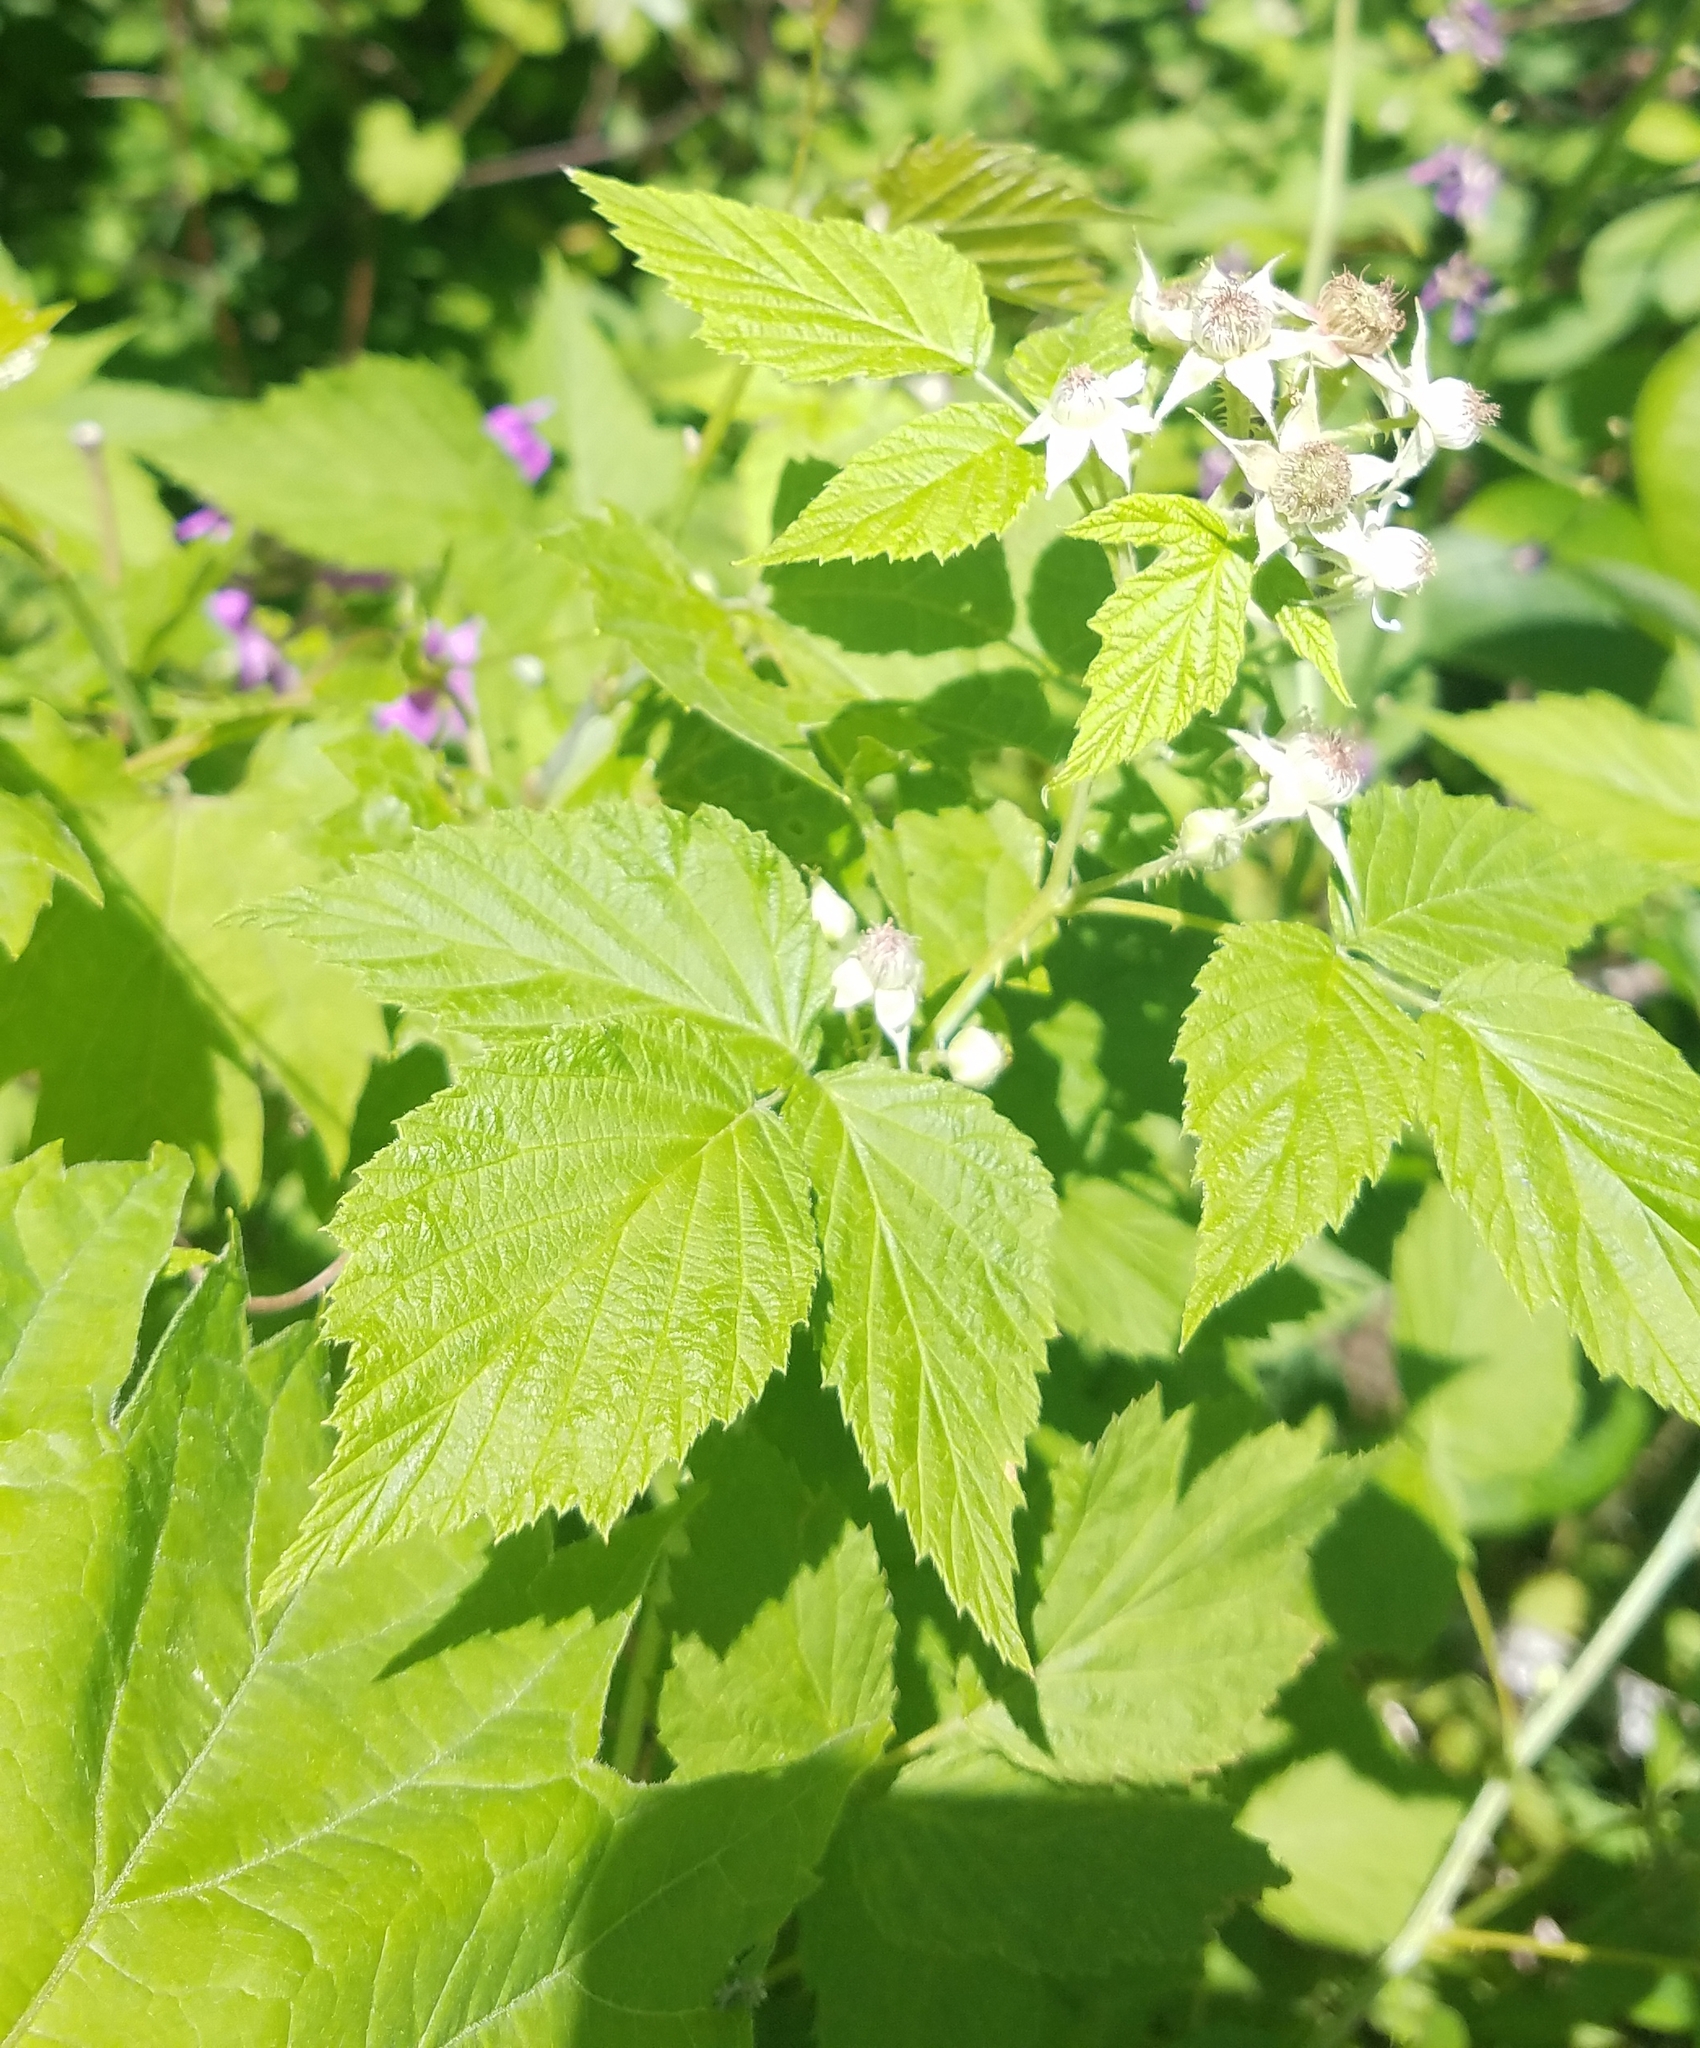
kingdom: Plantae
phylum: Tracheophyta
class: Magnoliopsida
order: Rosales
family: Rosaceae
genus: Rubus
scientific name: Rubus occidentalis
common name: Black raspberry
